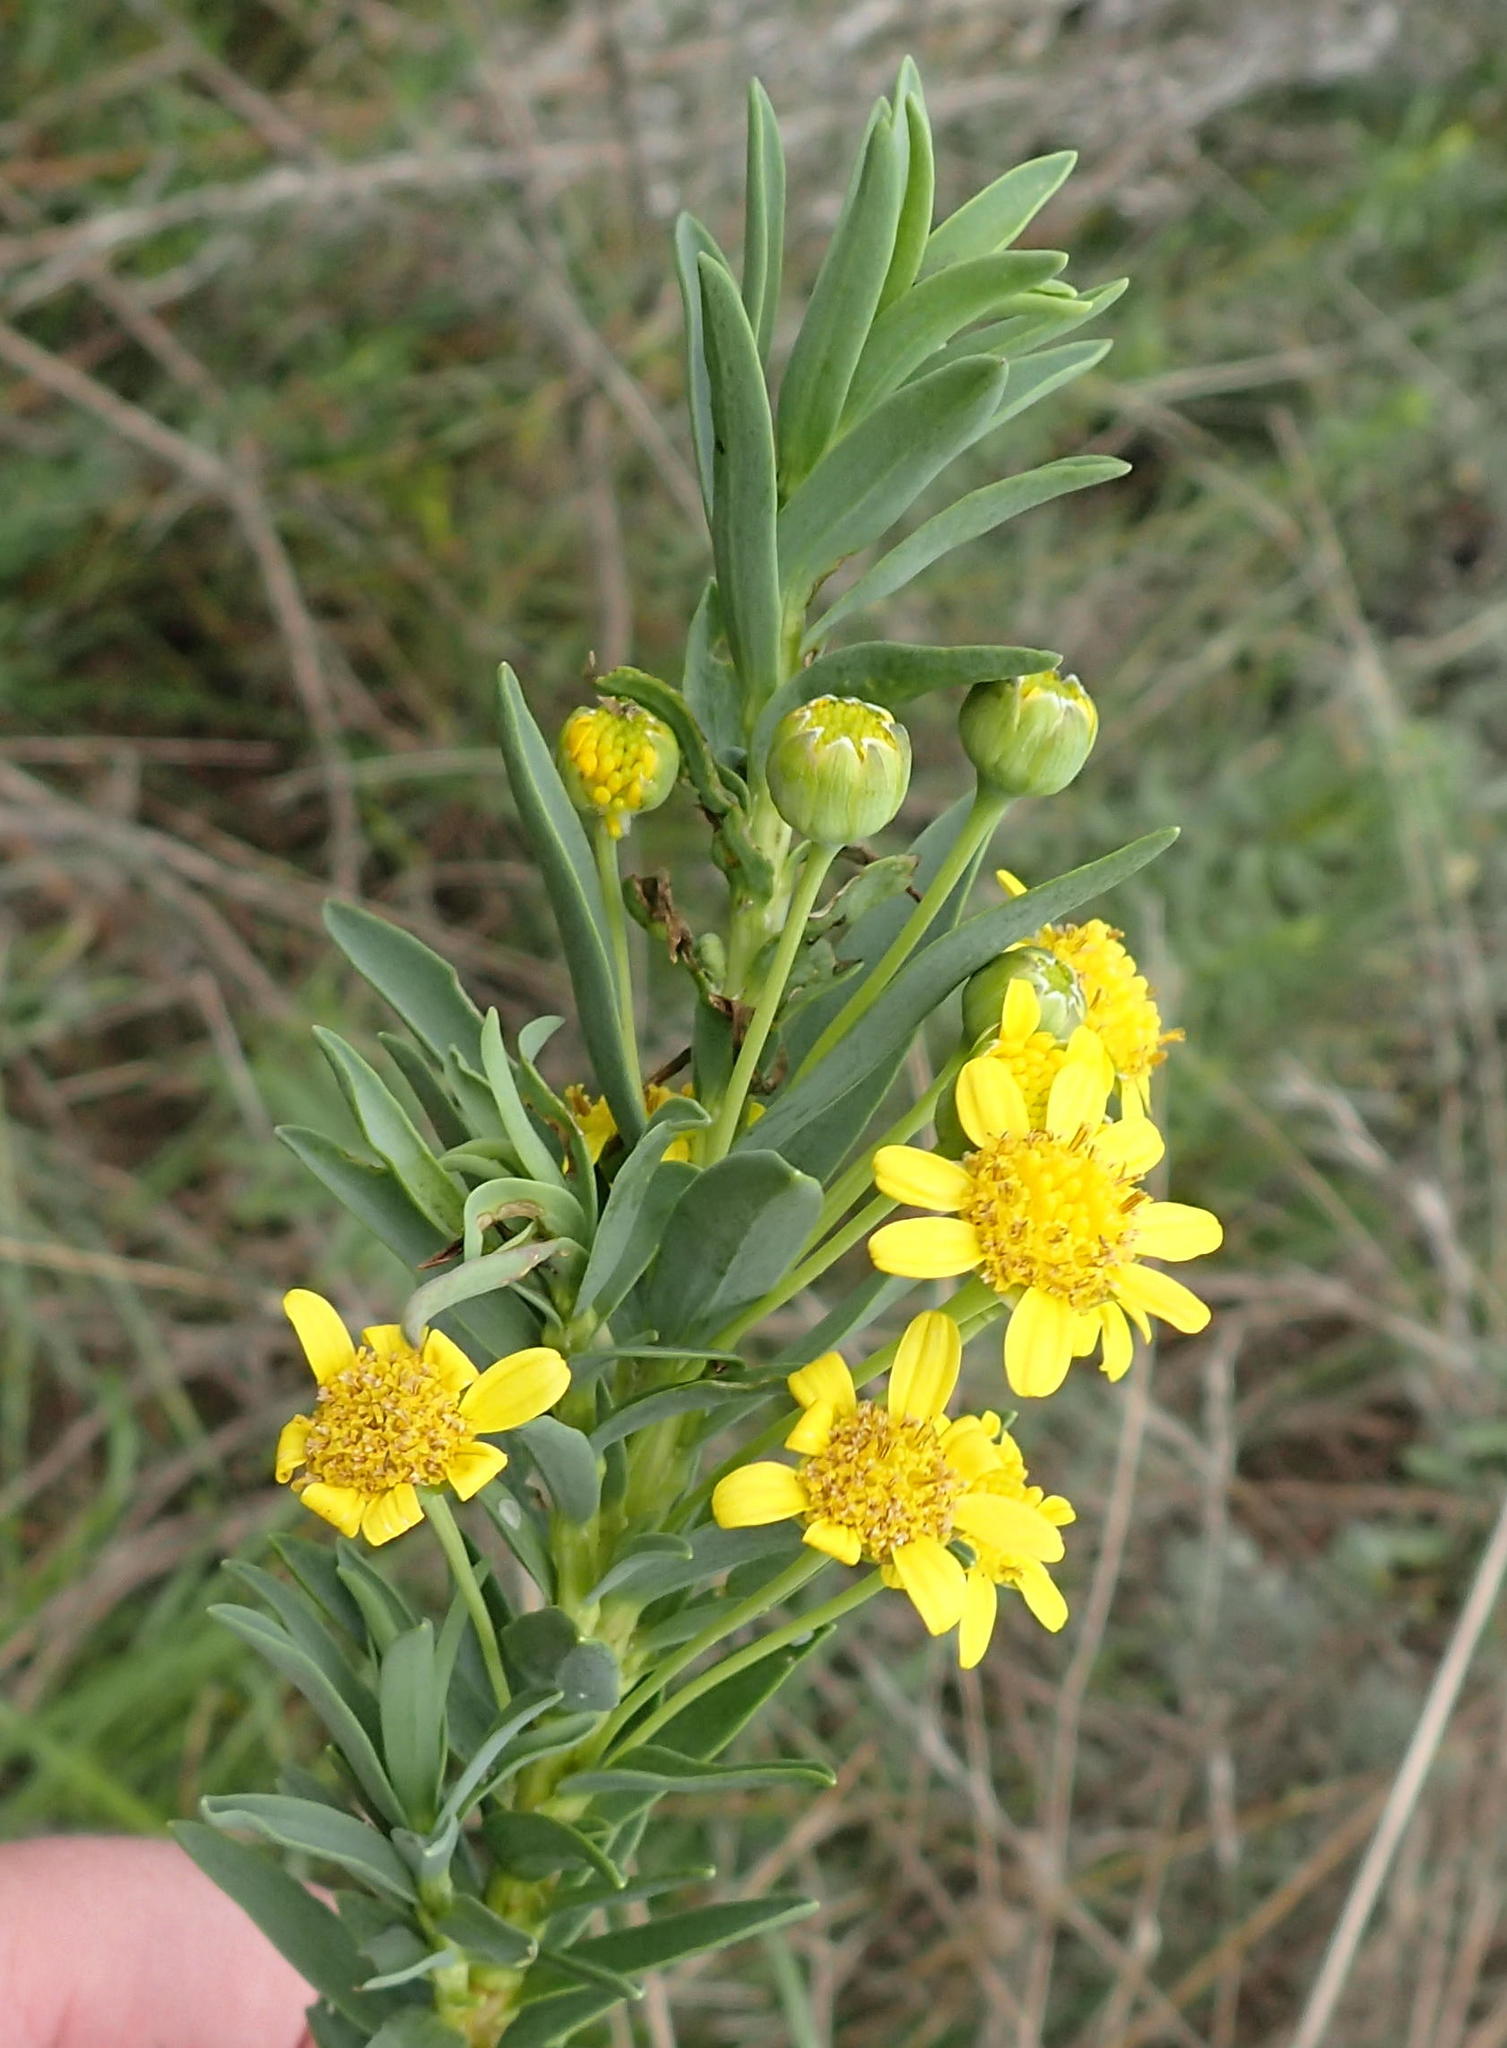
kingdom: Plantae
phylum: Tracheophyta
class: Magnoliopsida
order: Asterales
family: Asteraceae
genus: Euryops
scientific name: Euryops lateriflorus
